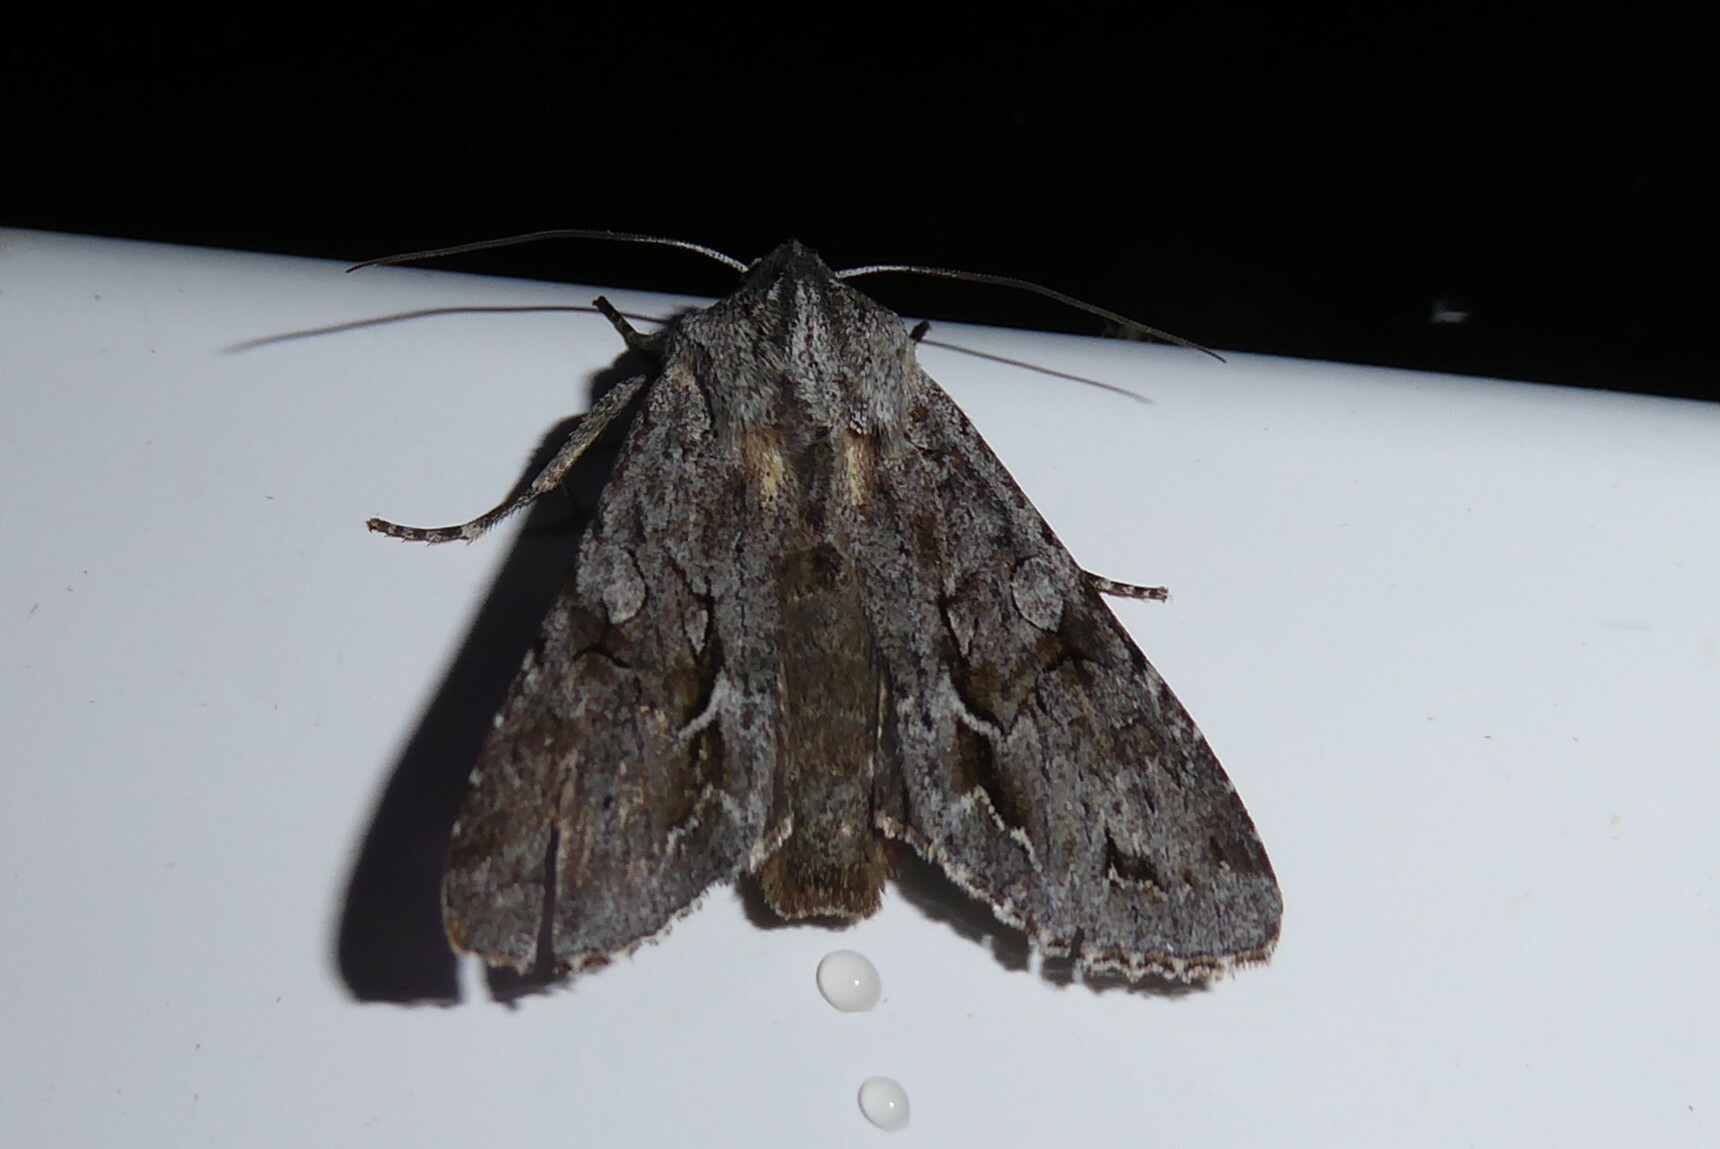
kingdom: Animalia
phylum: Arthropoda
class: Insecta
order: Lepidoptera
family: Noctuidae
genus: Ichneutica
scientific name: Ichneutica
